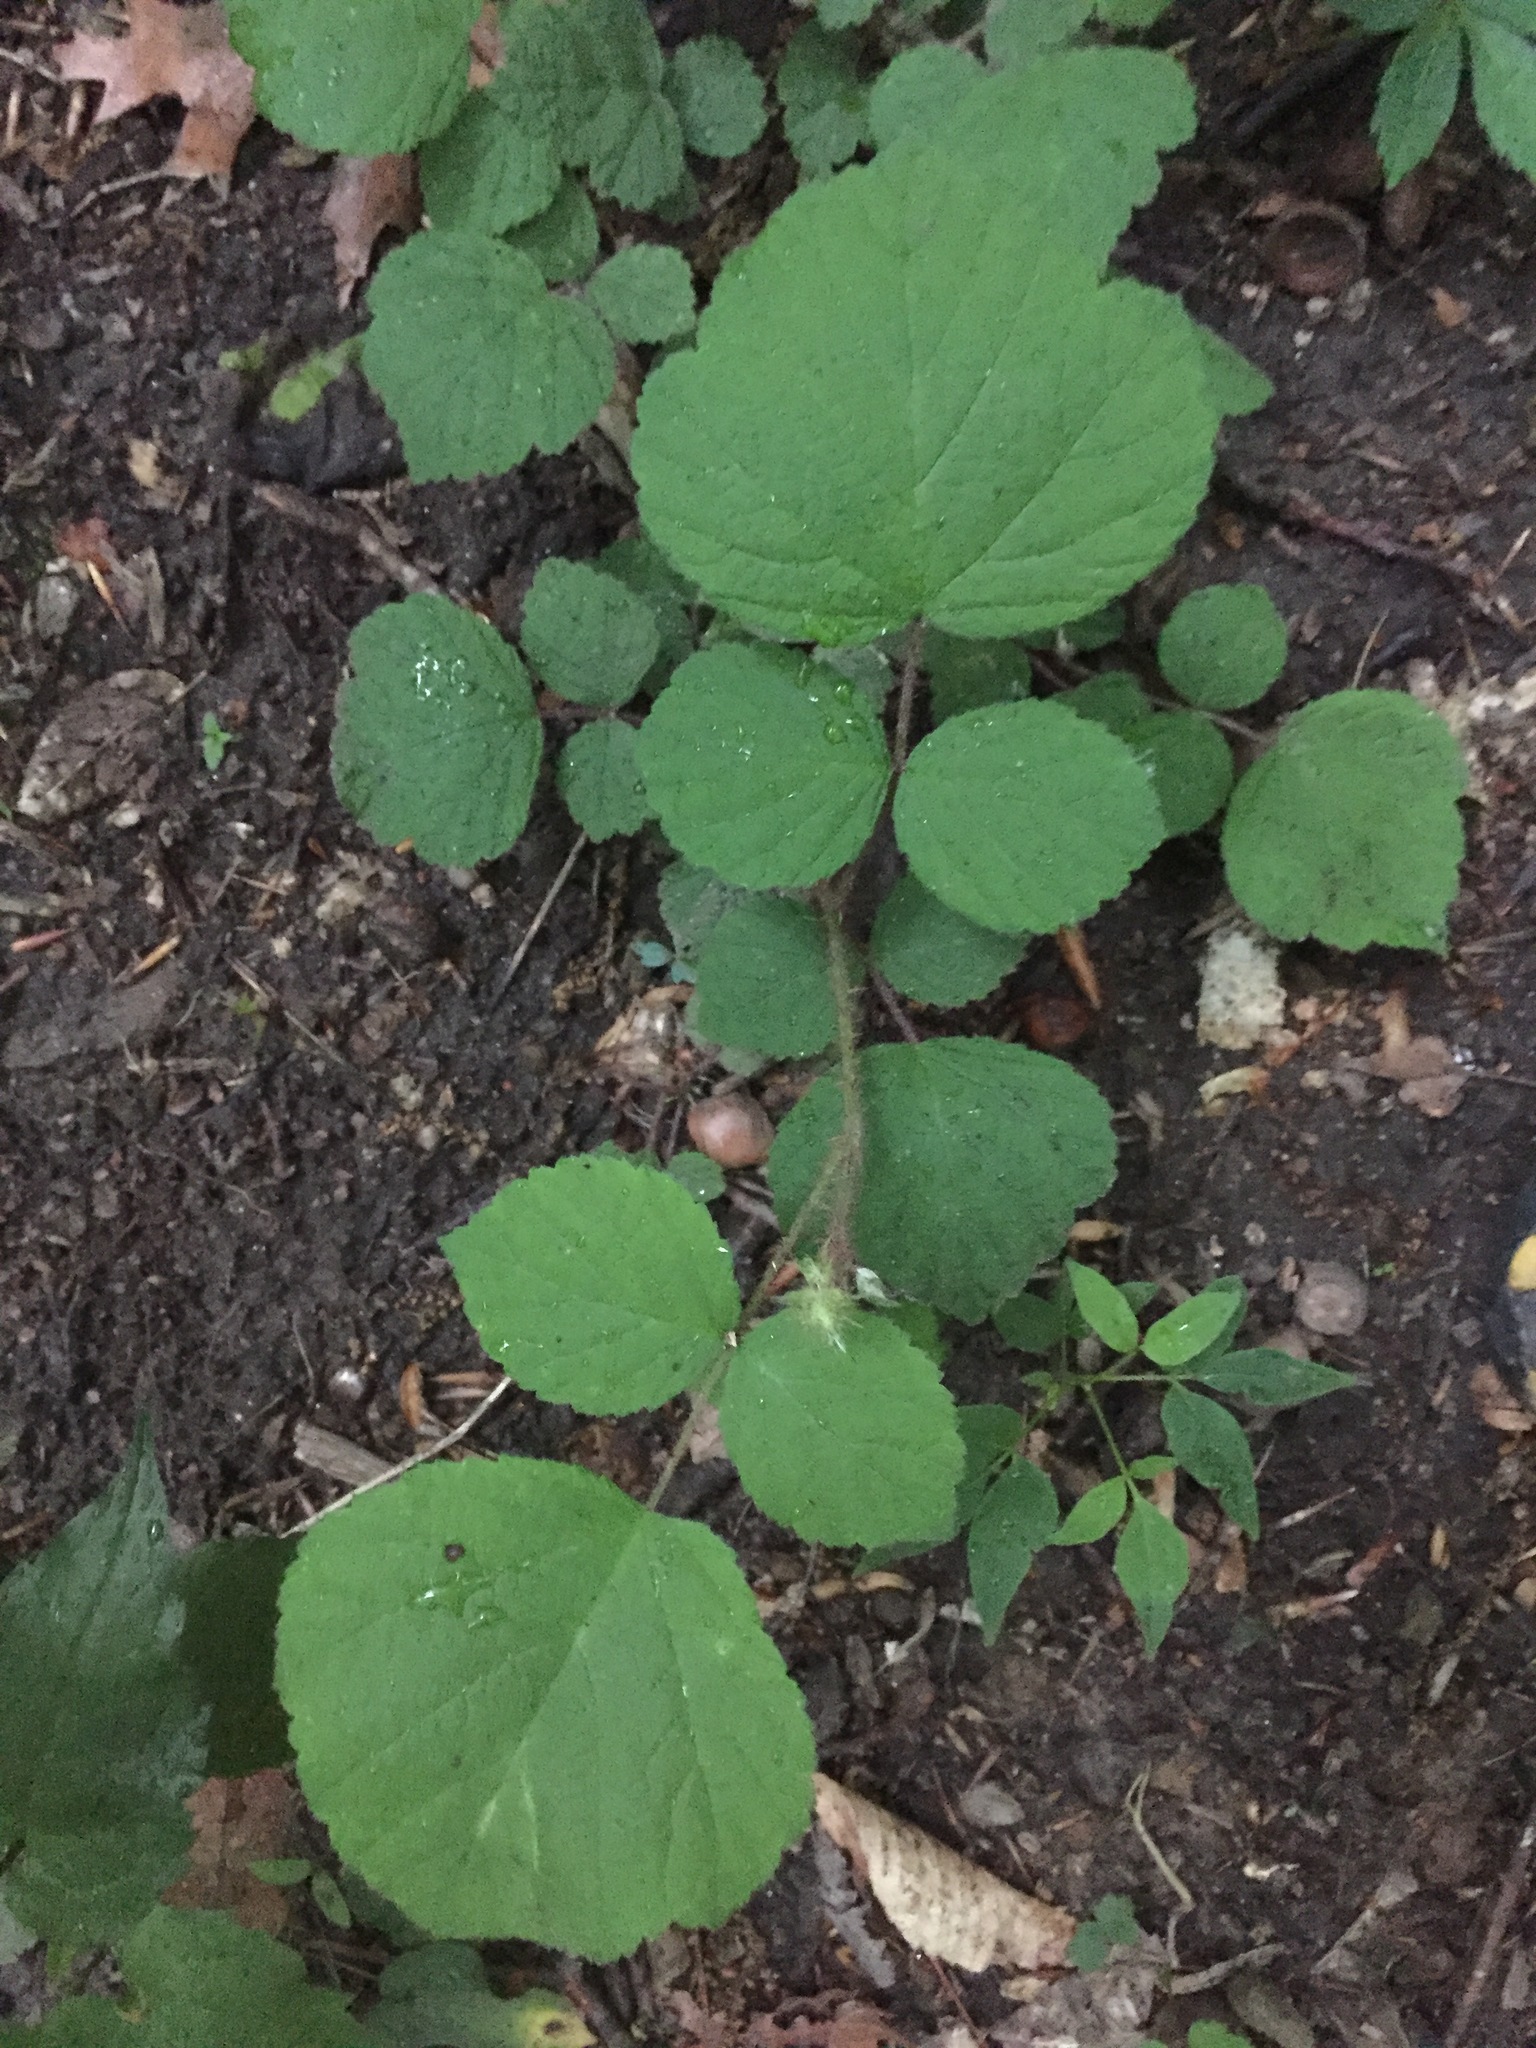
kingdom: Plantae
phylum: Tracheophyta
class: Magnoliopsida
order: Rosales
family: Rosaceae
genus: Rubus
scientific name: Rubus phoenicolasius
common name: Japanese wineberry
